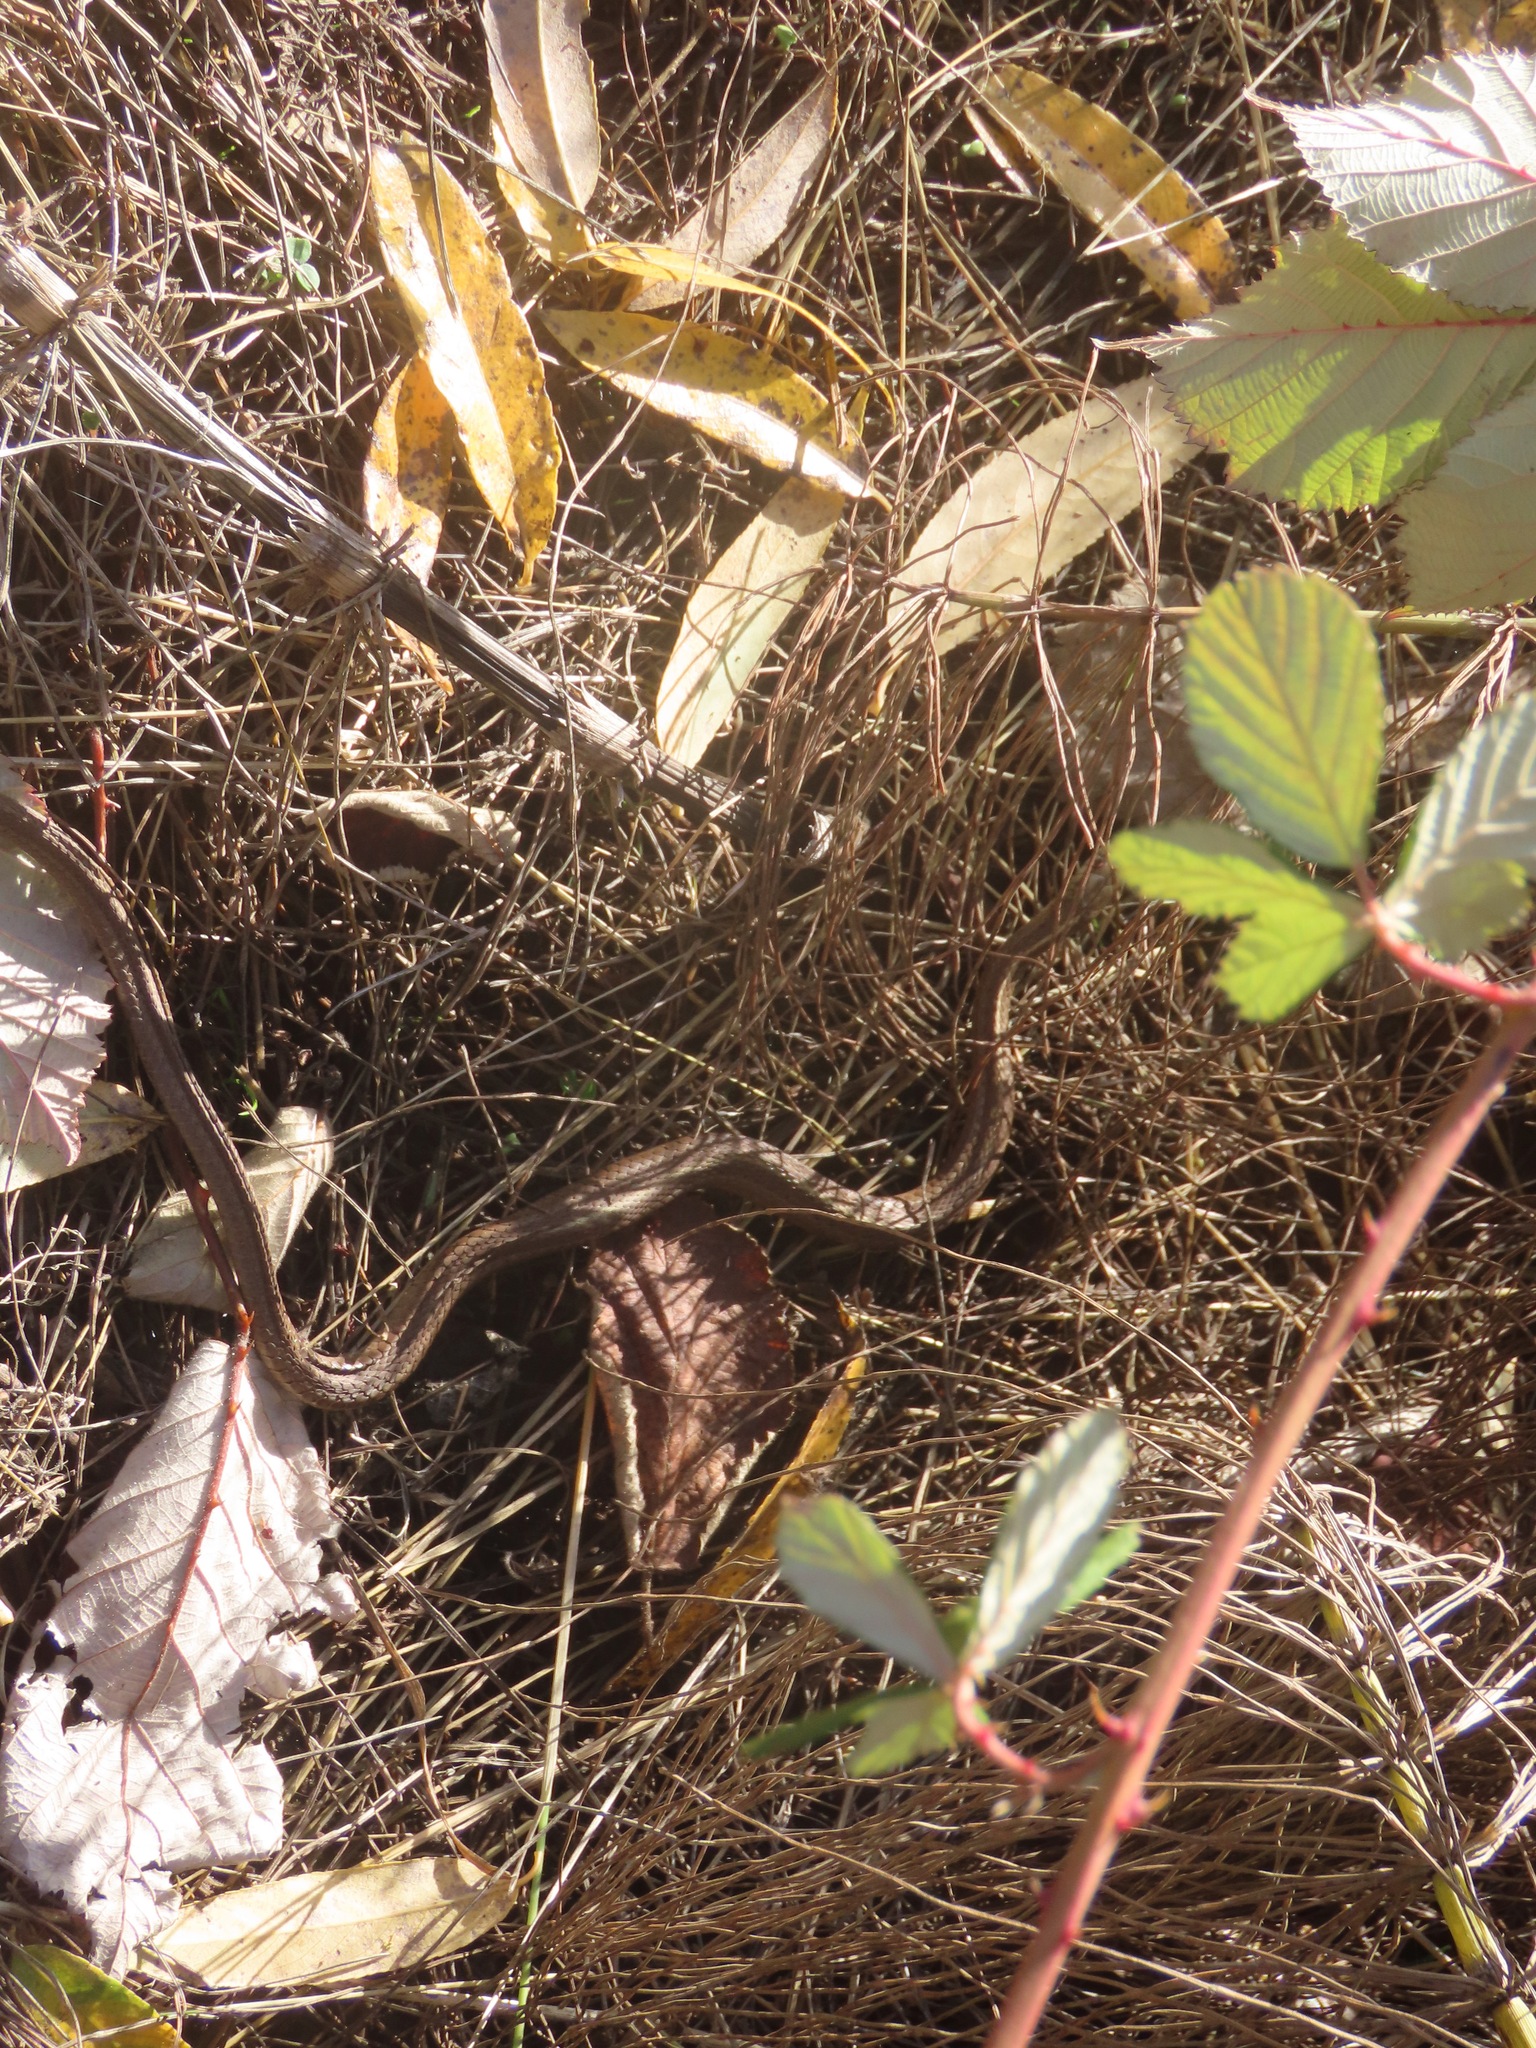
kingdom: Animalia
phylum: Chordata
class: Squamata
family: Colubridae
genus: Thamnophis
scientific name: Thamnophis ordinoides
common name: Northwestern garter snake
